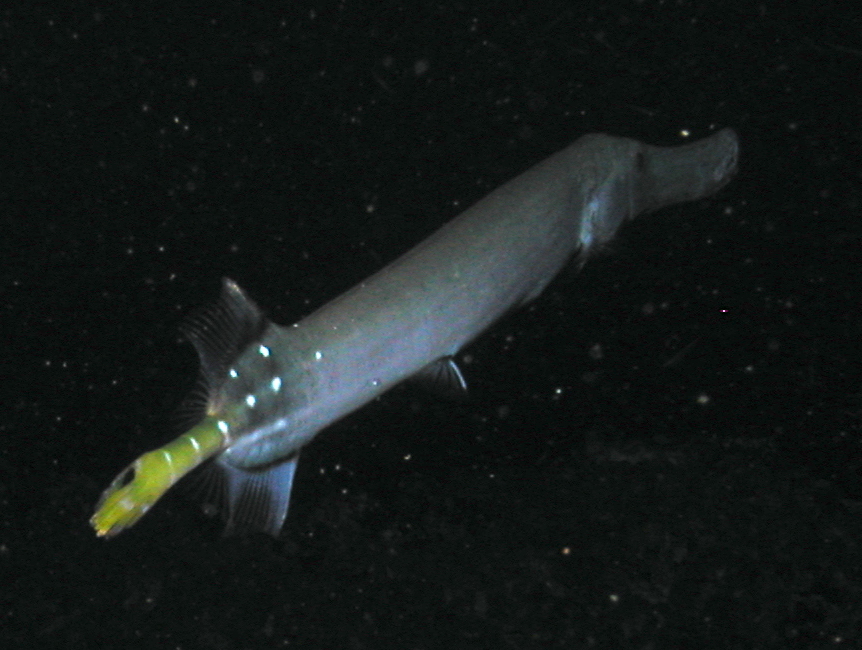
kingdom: Animalia
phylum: Chordata
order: Syngnathiformes
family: Aulostomidae
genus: Aulostomus
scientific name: Aulostomus chinensis
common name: Chinese trumpetfish
